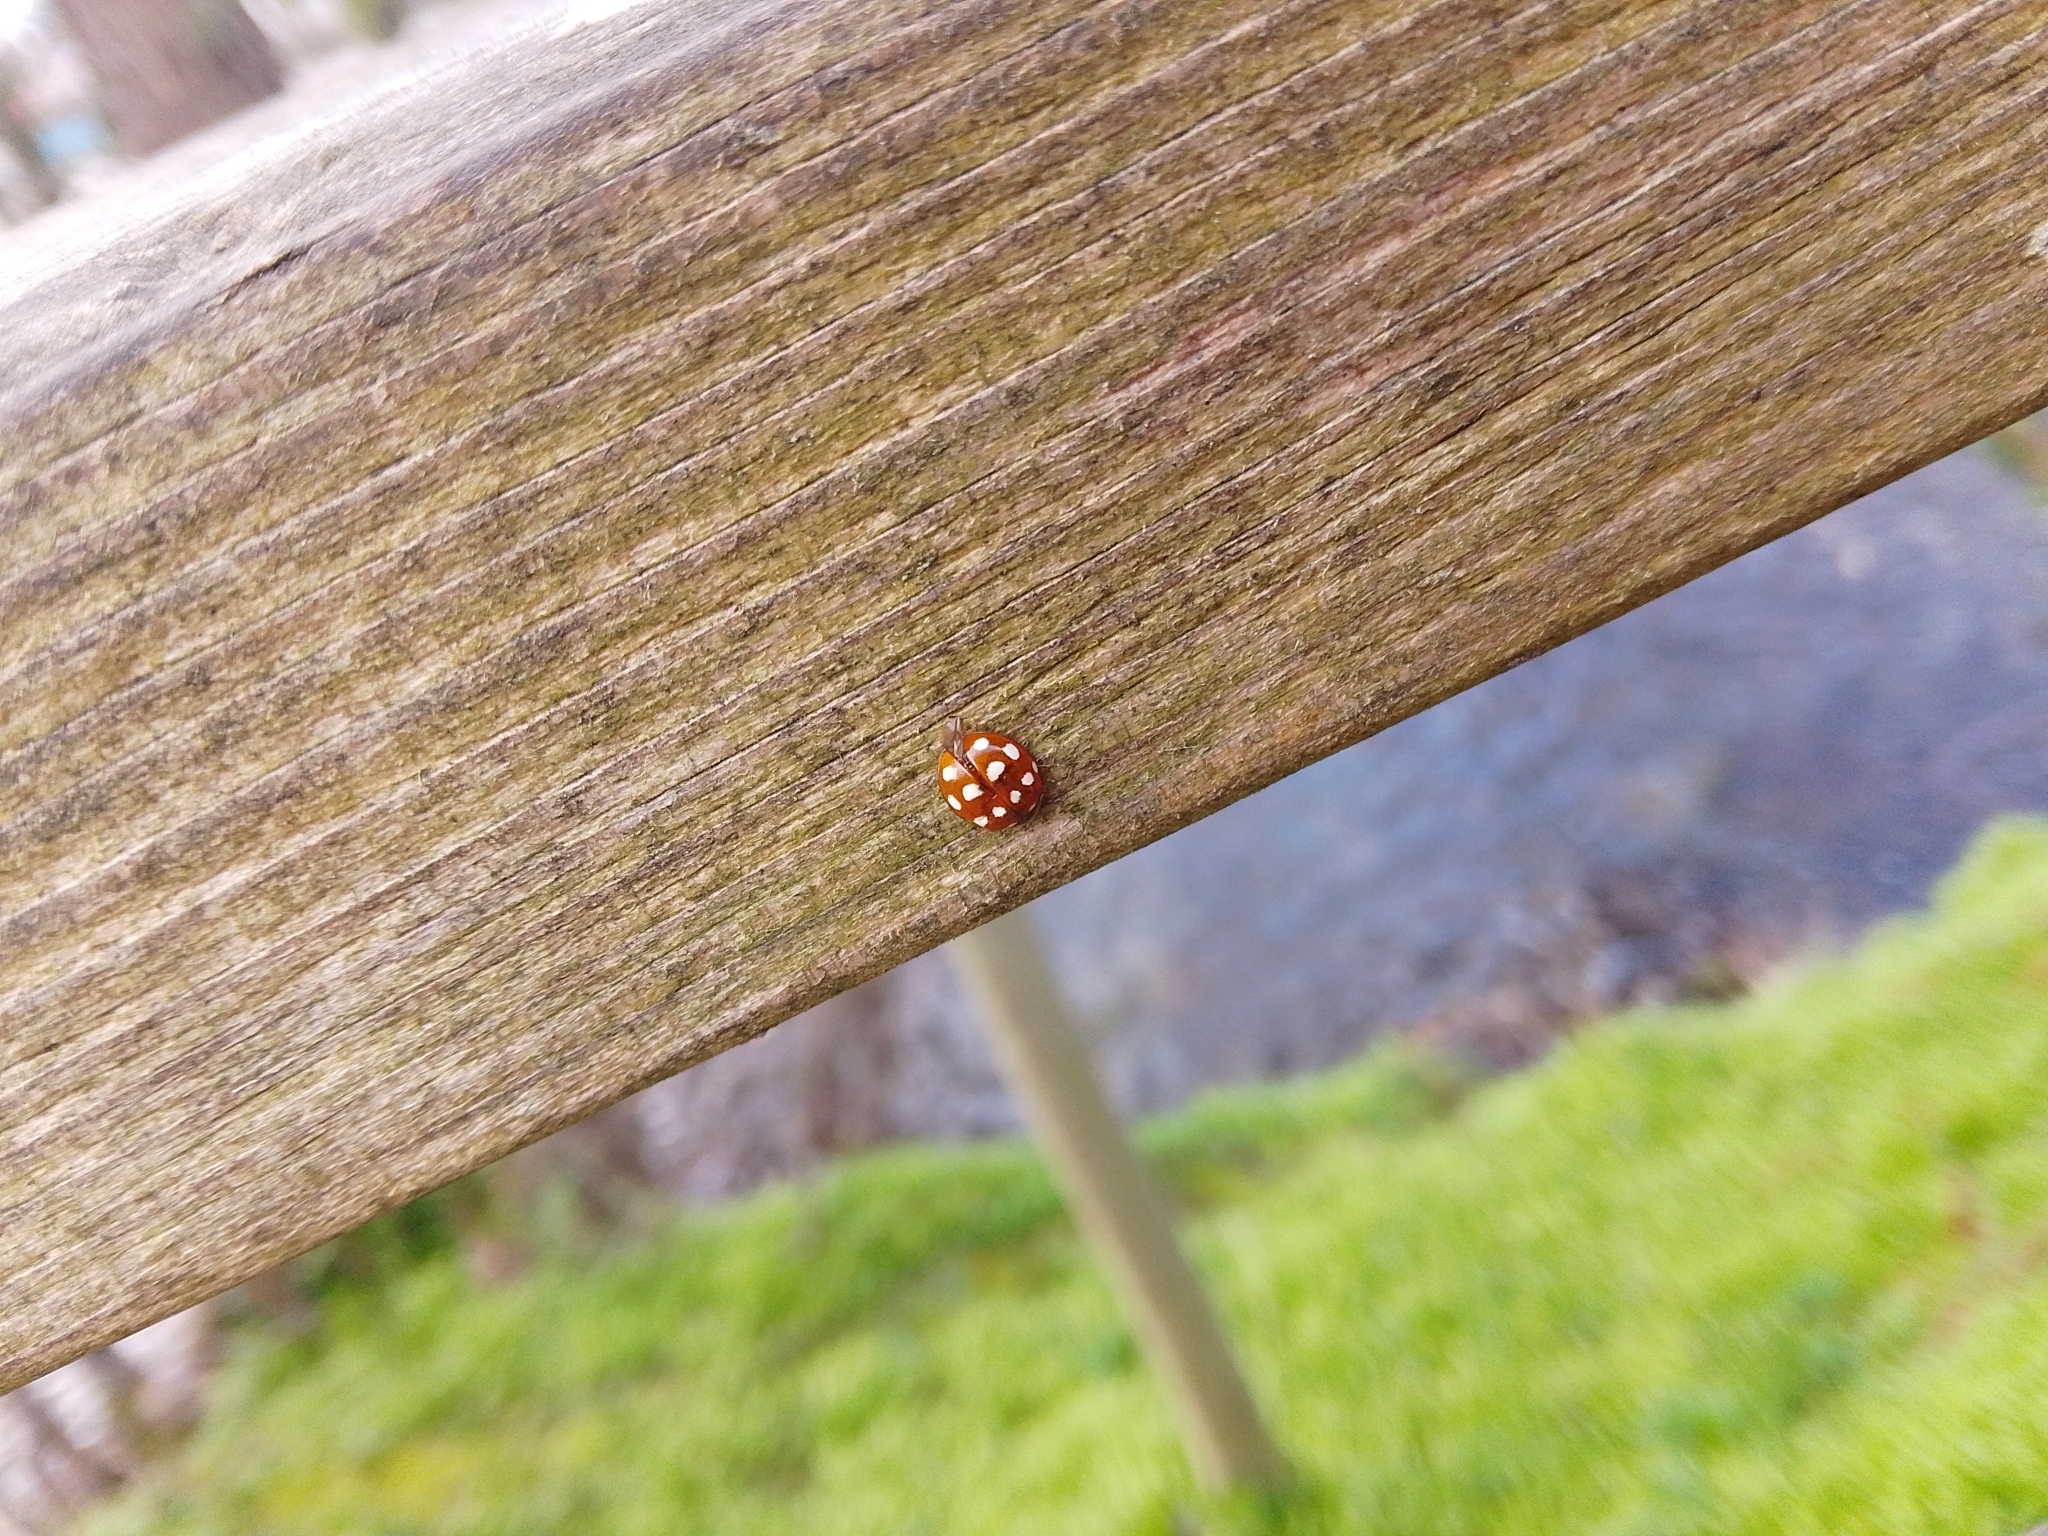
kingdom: Animalia
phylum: Arthropoda
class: Insecta
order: Coleoptera
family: Coccinellidae
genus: Calvia
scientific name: Calvia quatuordecimguttata
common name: Cream-spot ladybird
